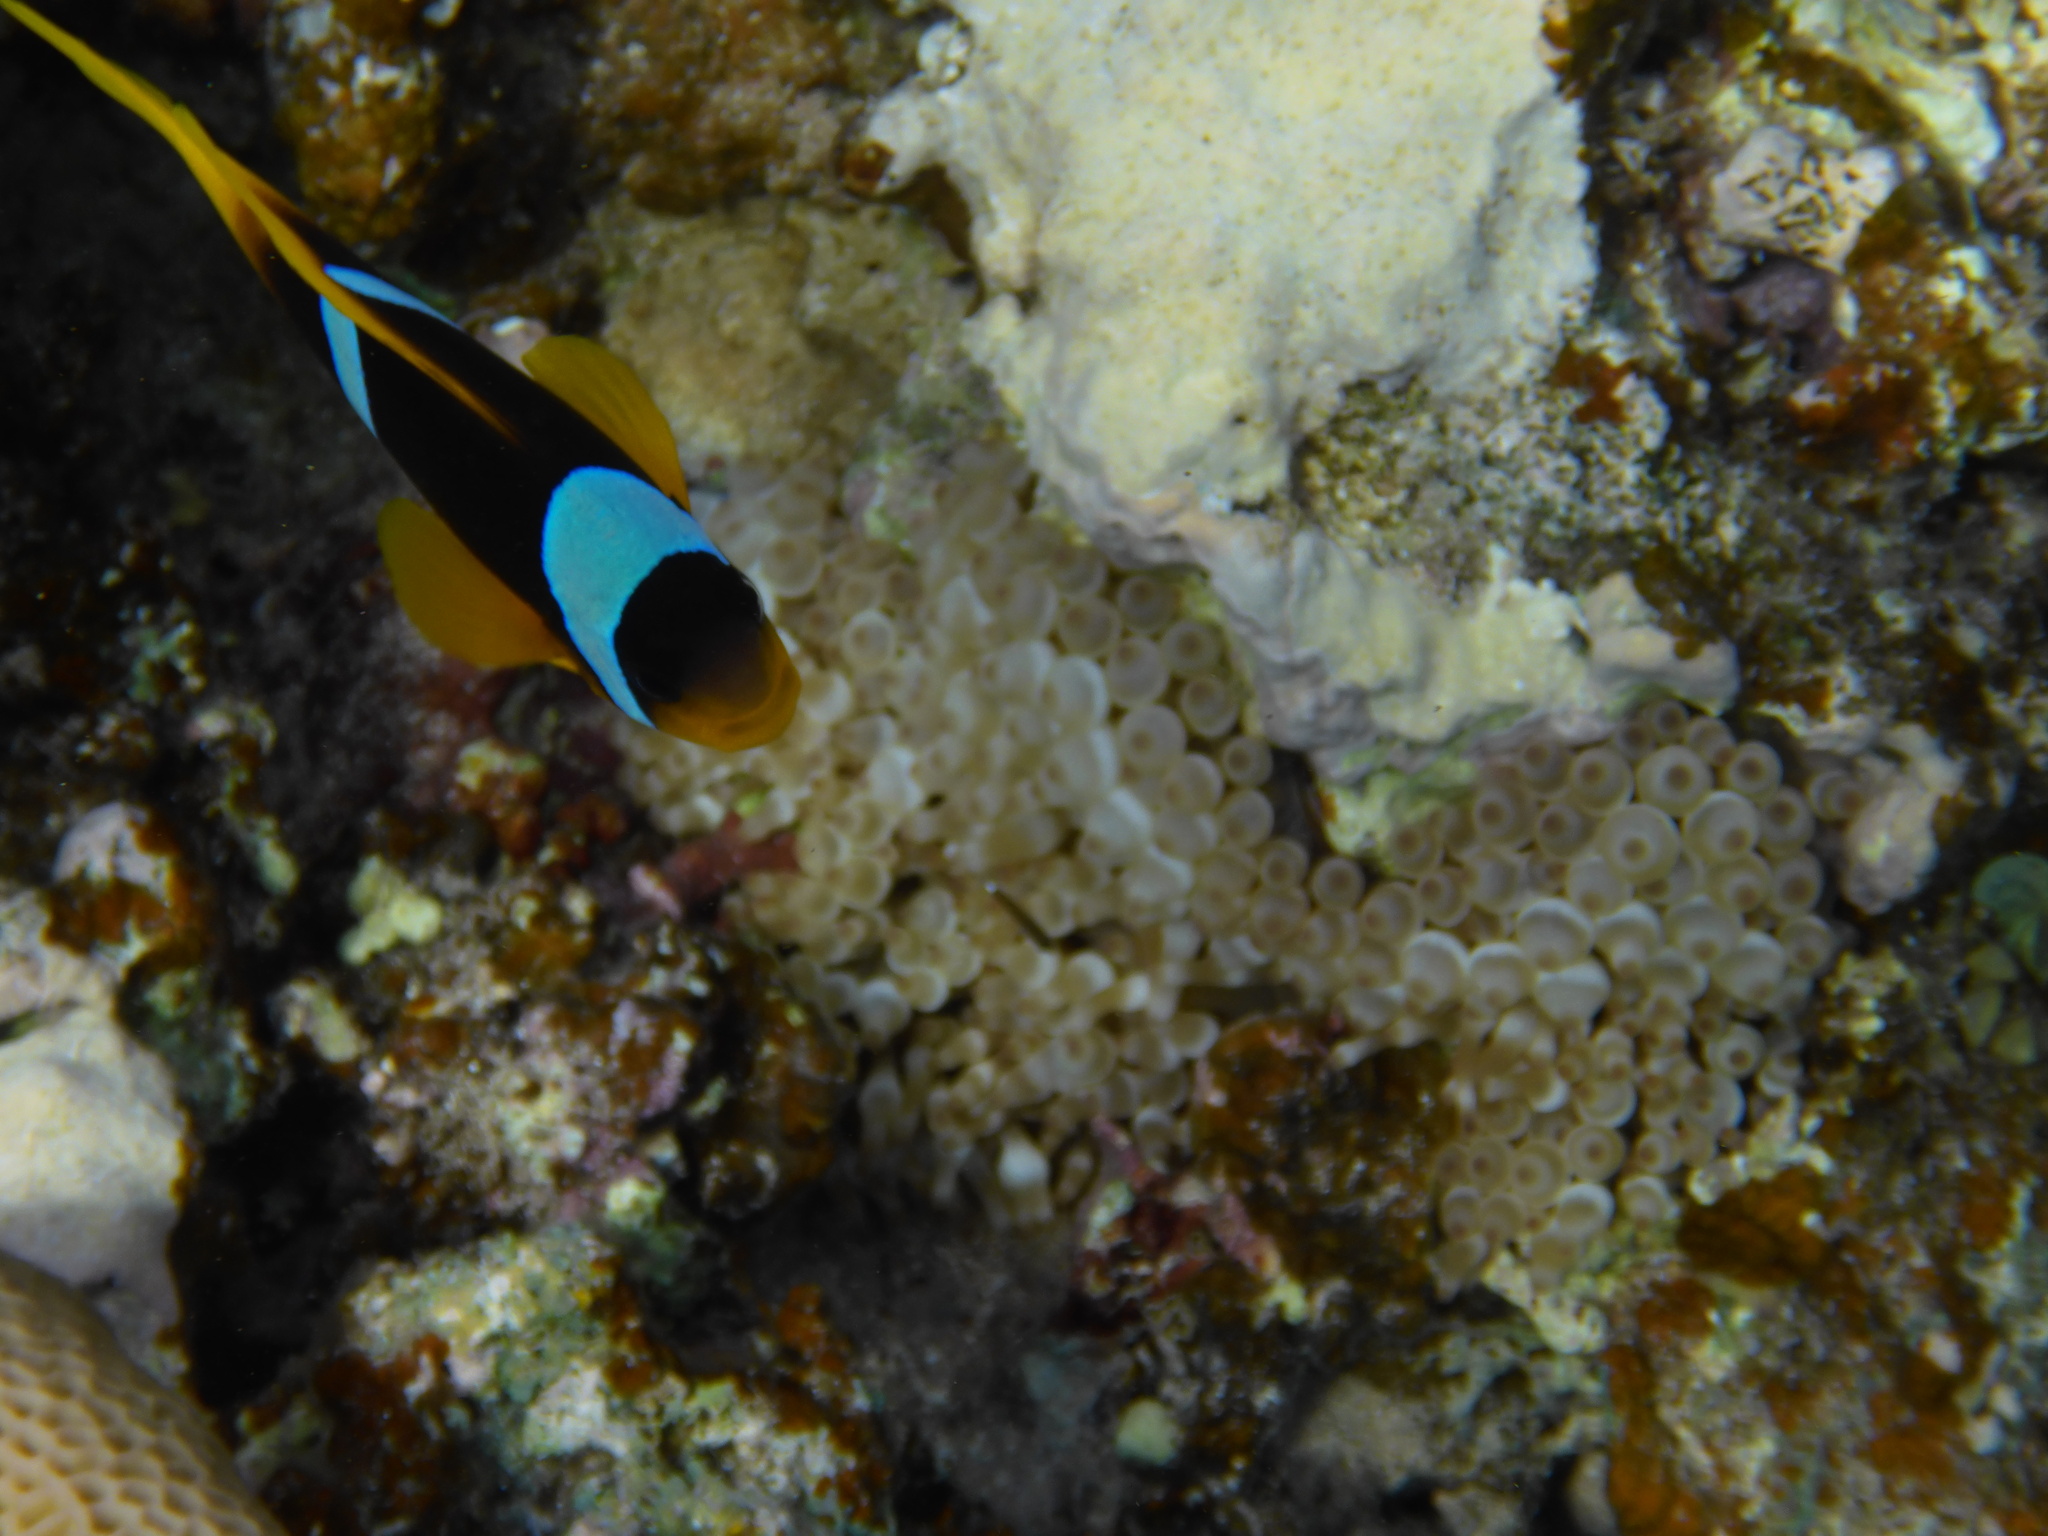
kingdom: Animalia
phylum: Chordata
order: Perciformes
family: Pomacentridae
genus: Amphiprion
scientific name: Amphiprion bicinctus
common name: Two-banded anemonefish
